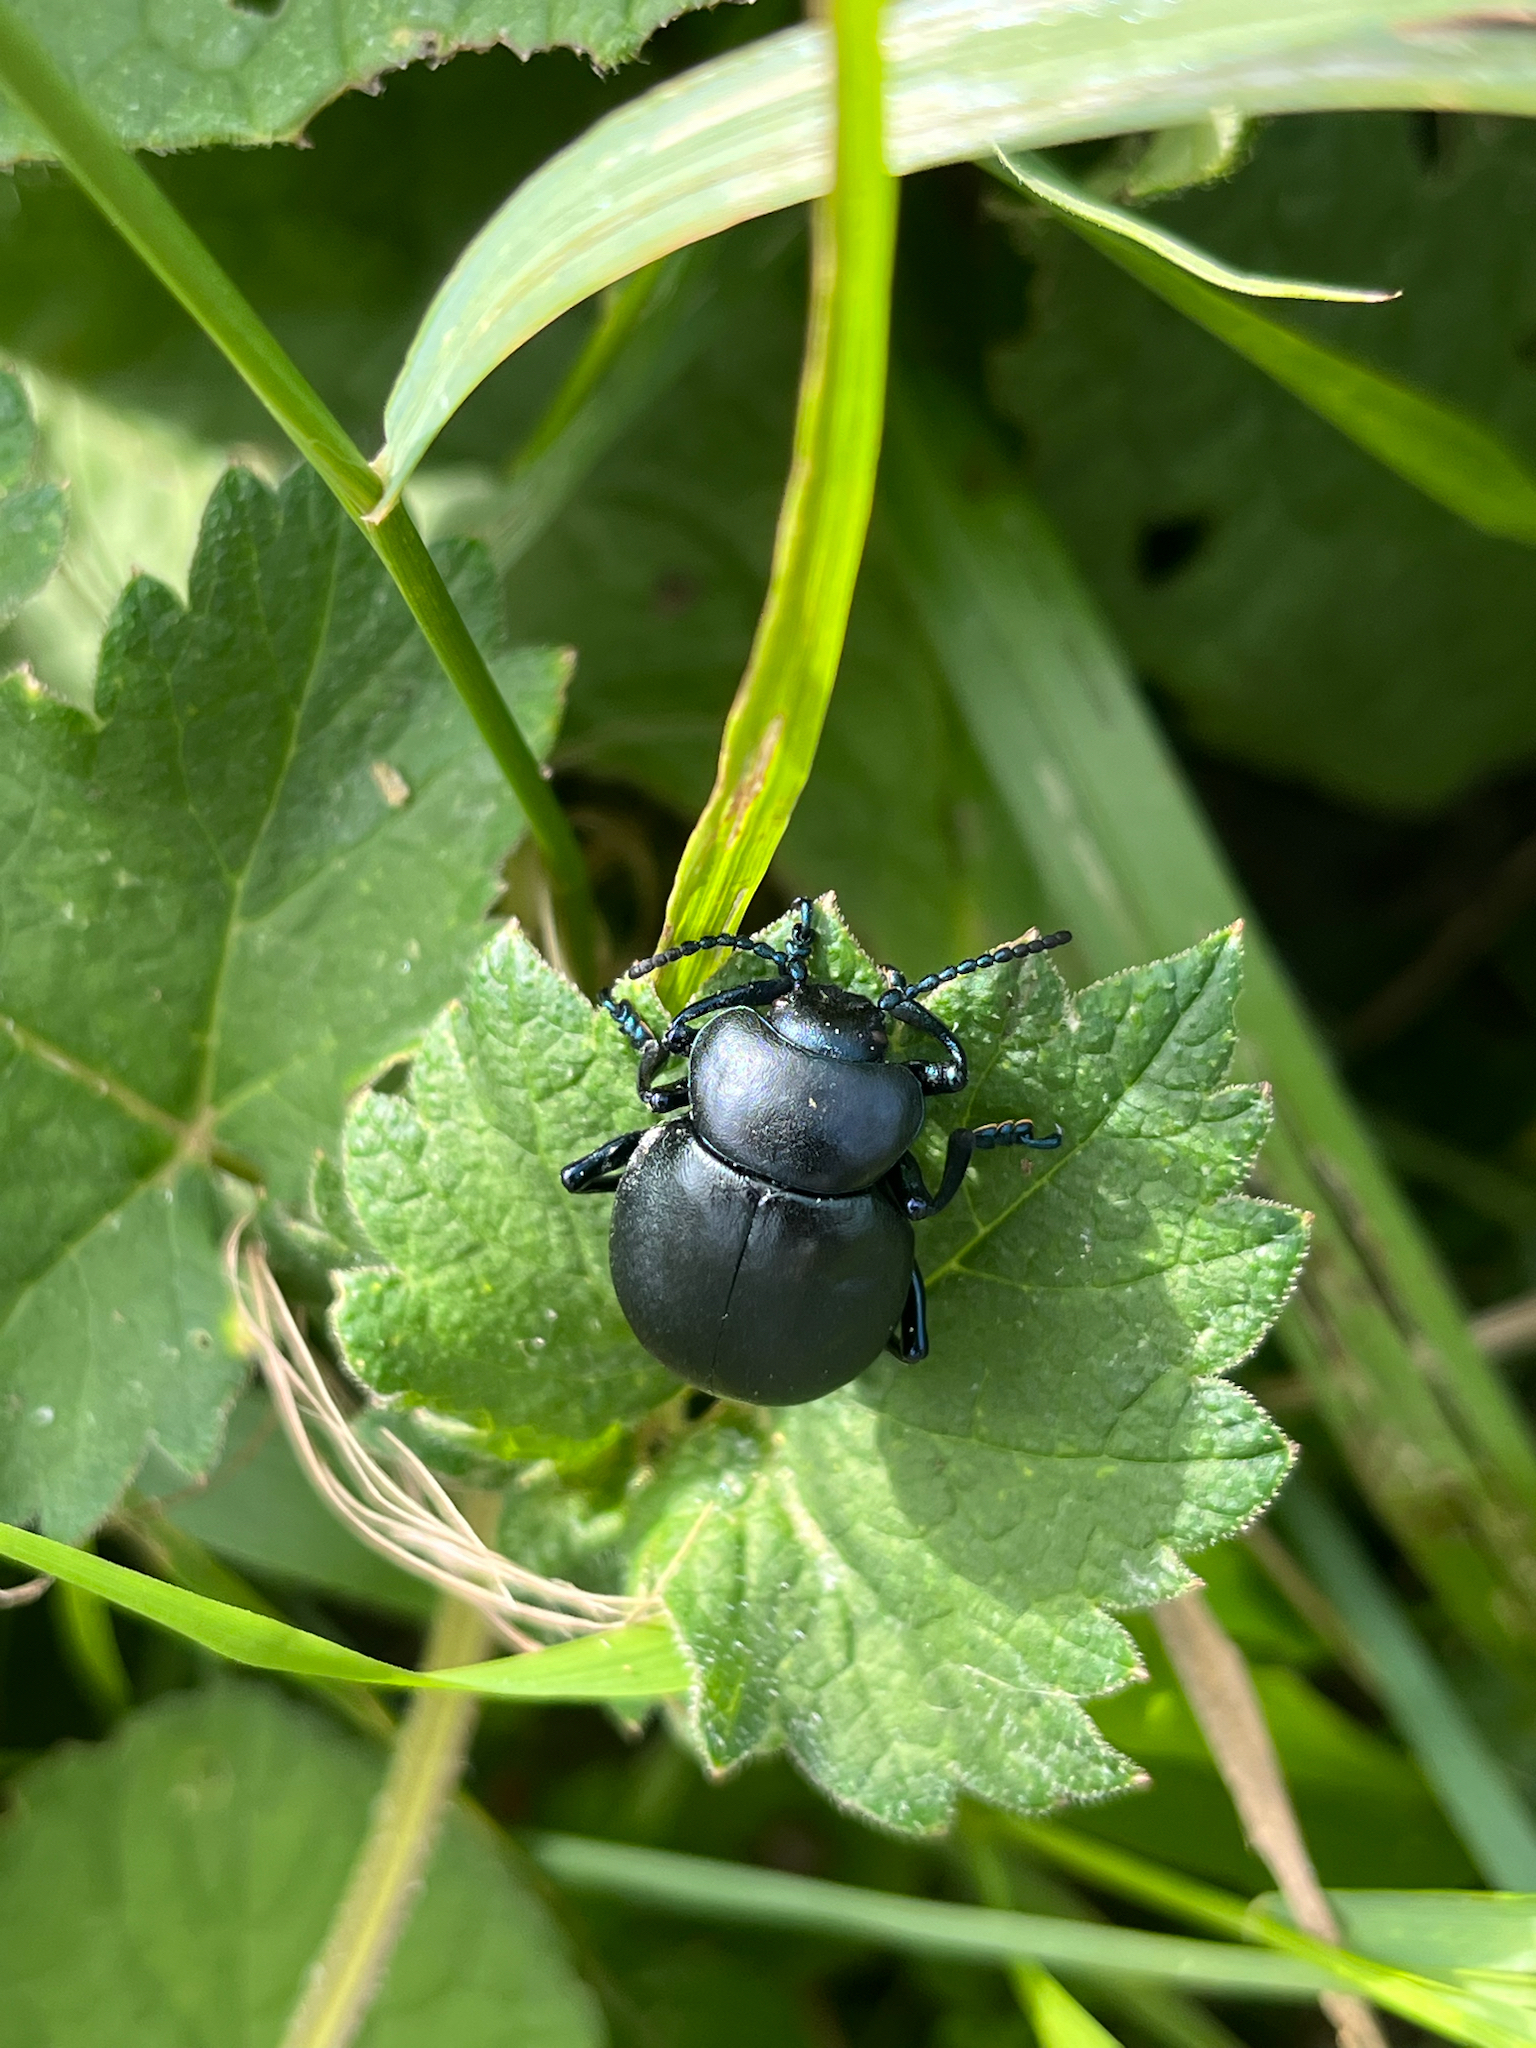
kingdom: Animalia
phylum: Arthropoda
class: Insecta
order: Coleoptera
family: Chrysomelidae
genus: Timarcha
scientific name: Timarcha tenebricosa
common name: Bloody-nosed beetle
